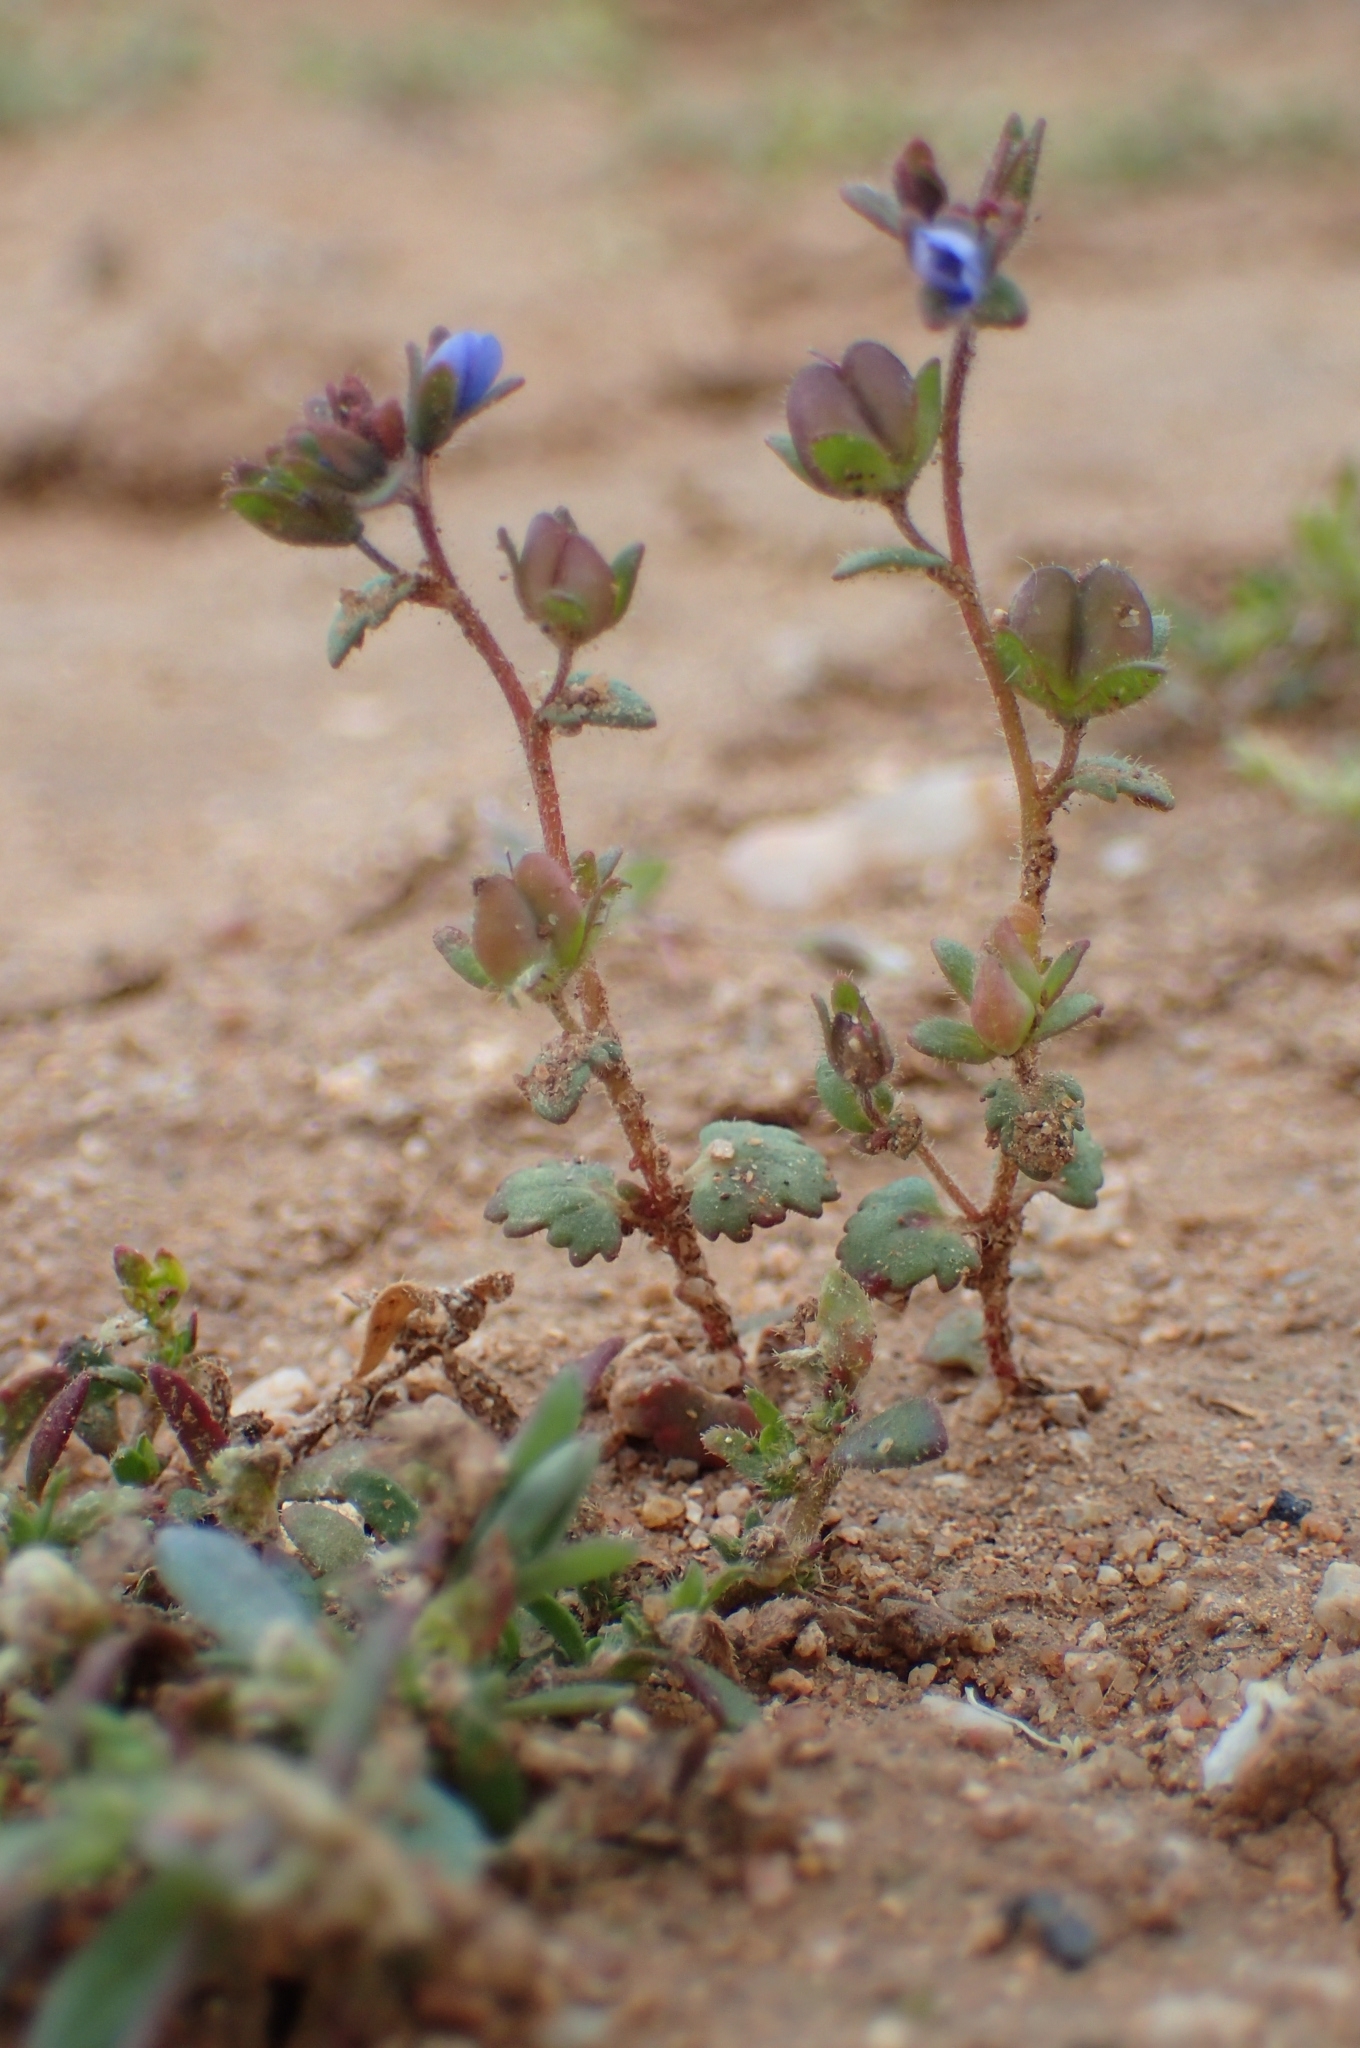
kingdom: Plantae
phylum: Tracheophyta
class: Magnoliopsida
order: Lamiales
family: Plantaginaceae
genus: Veronica
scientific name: Veronica praecox
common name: Breckland speedwell
